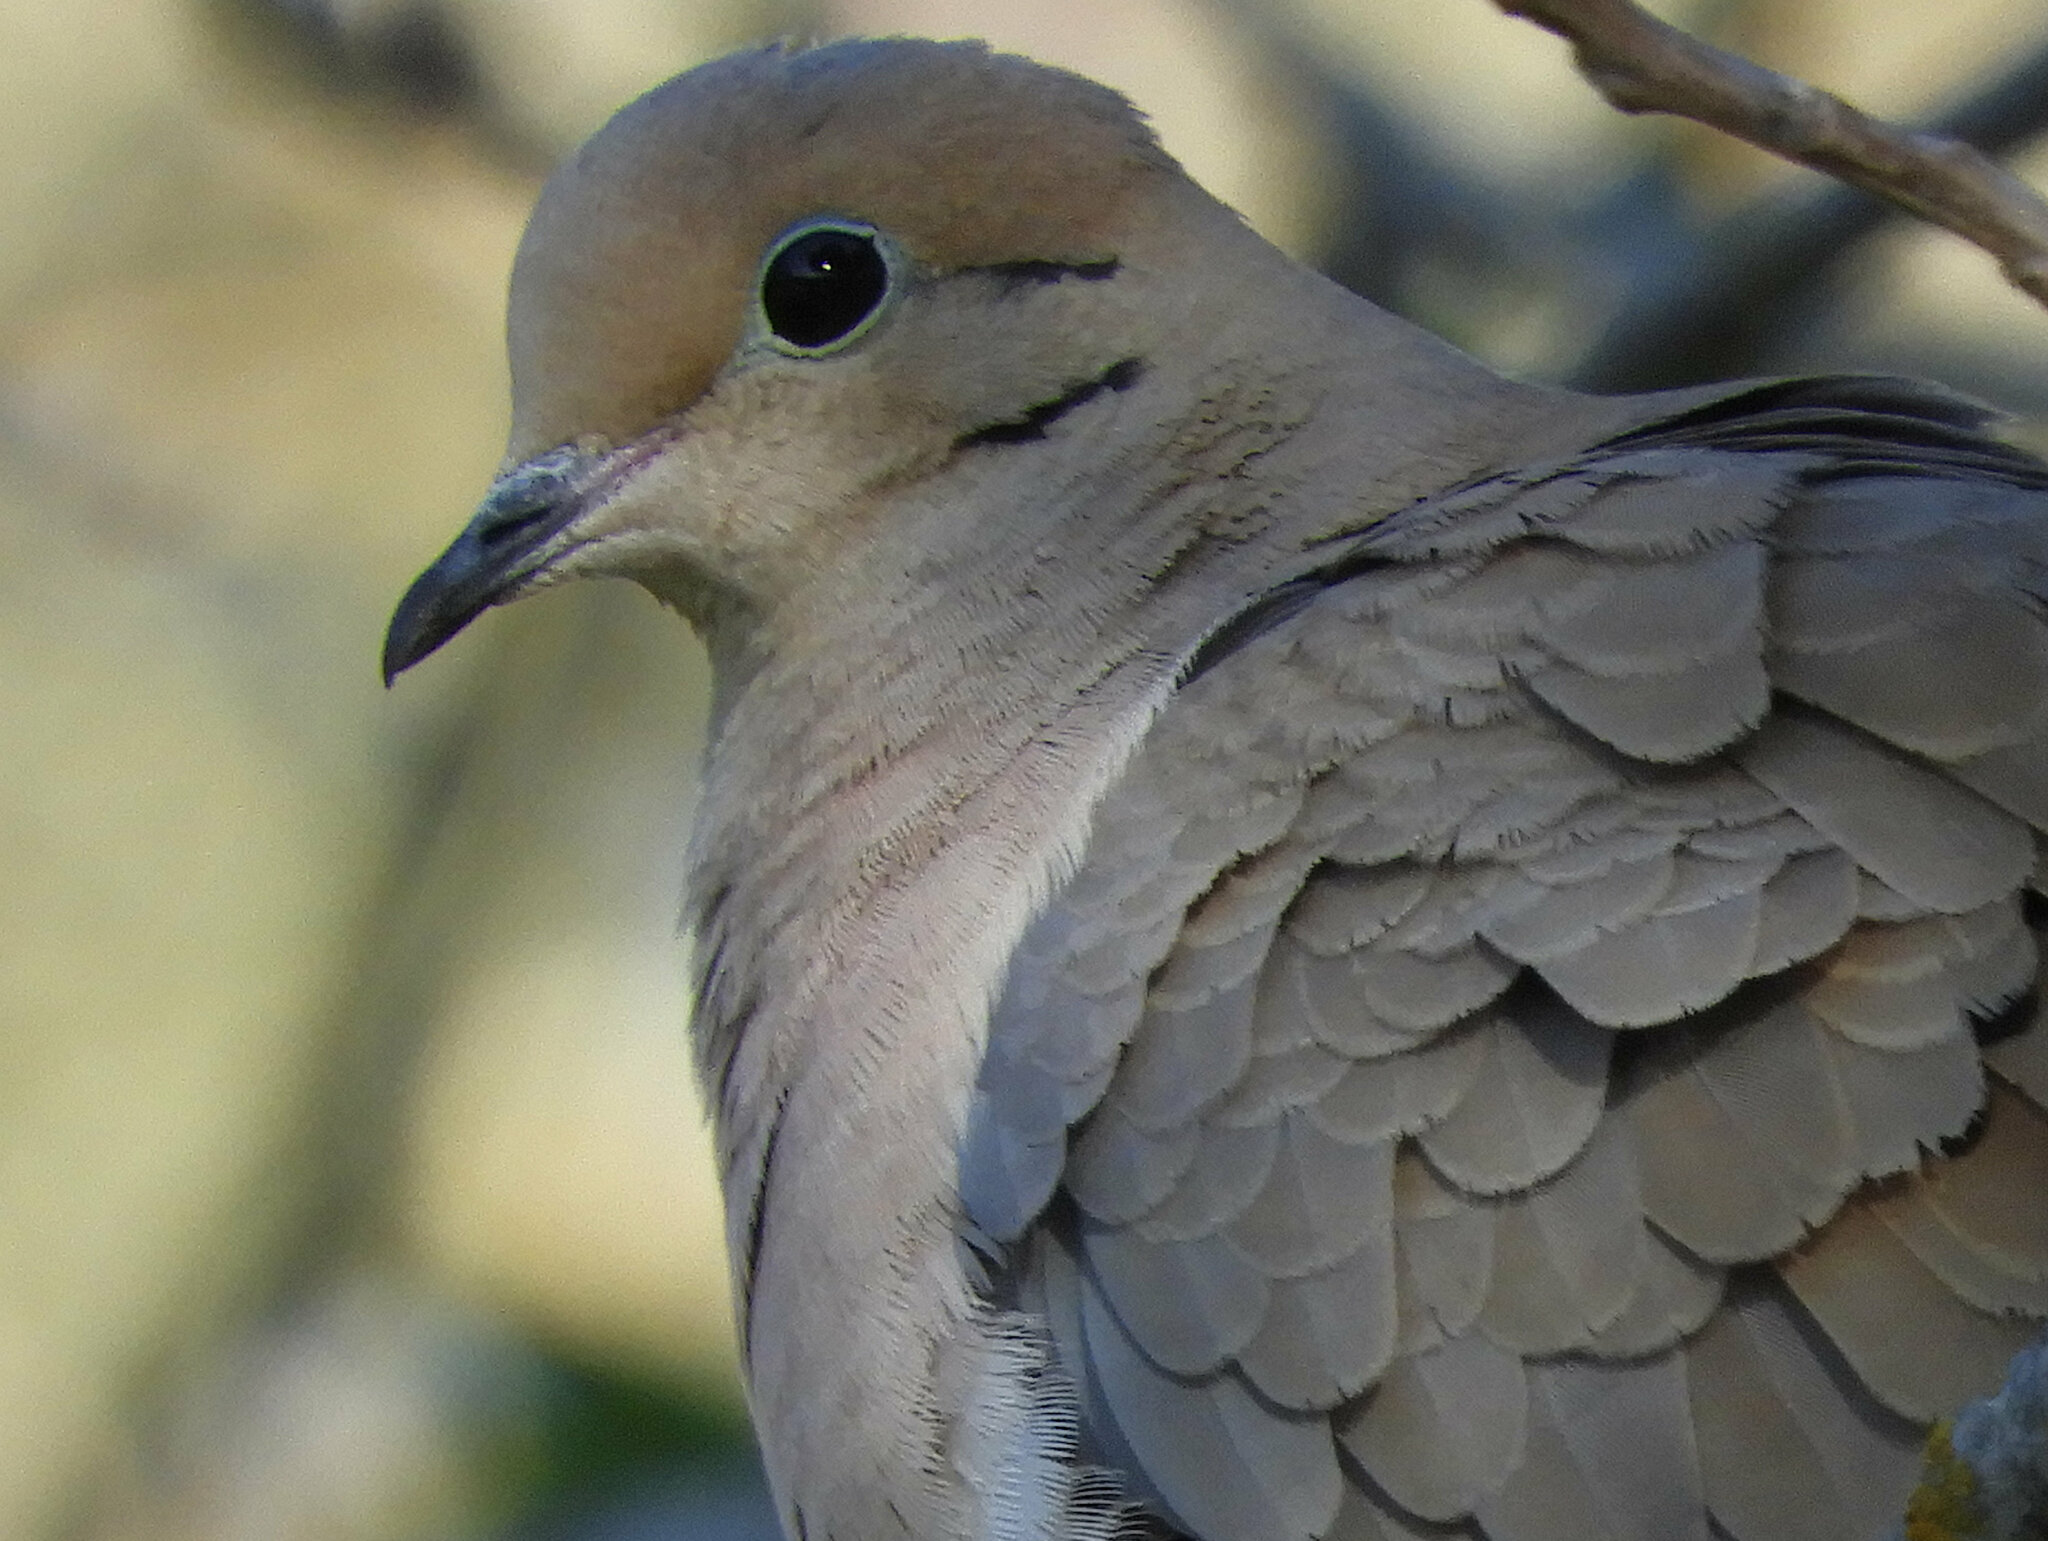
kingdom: Animalia
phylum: Chordata
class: Aves
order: Columbiformes
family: Columbidae
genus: Zenaida
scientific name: Zenaida macroura
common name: Mourning dove
